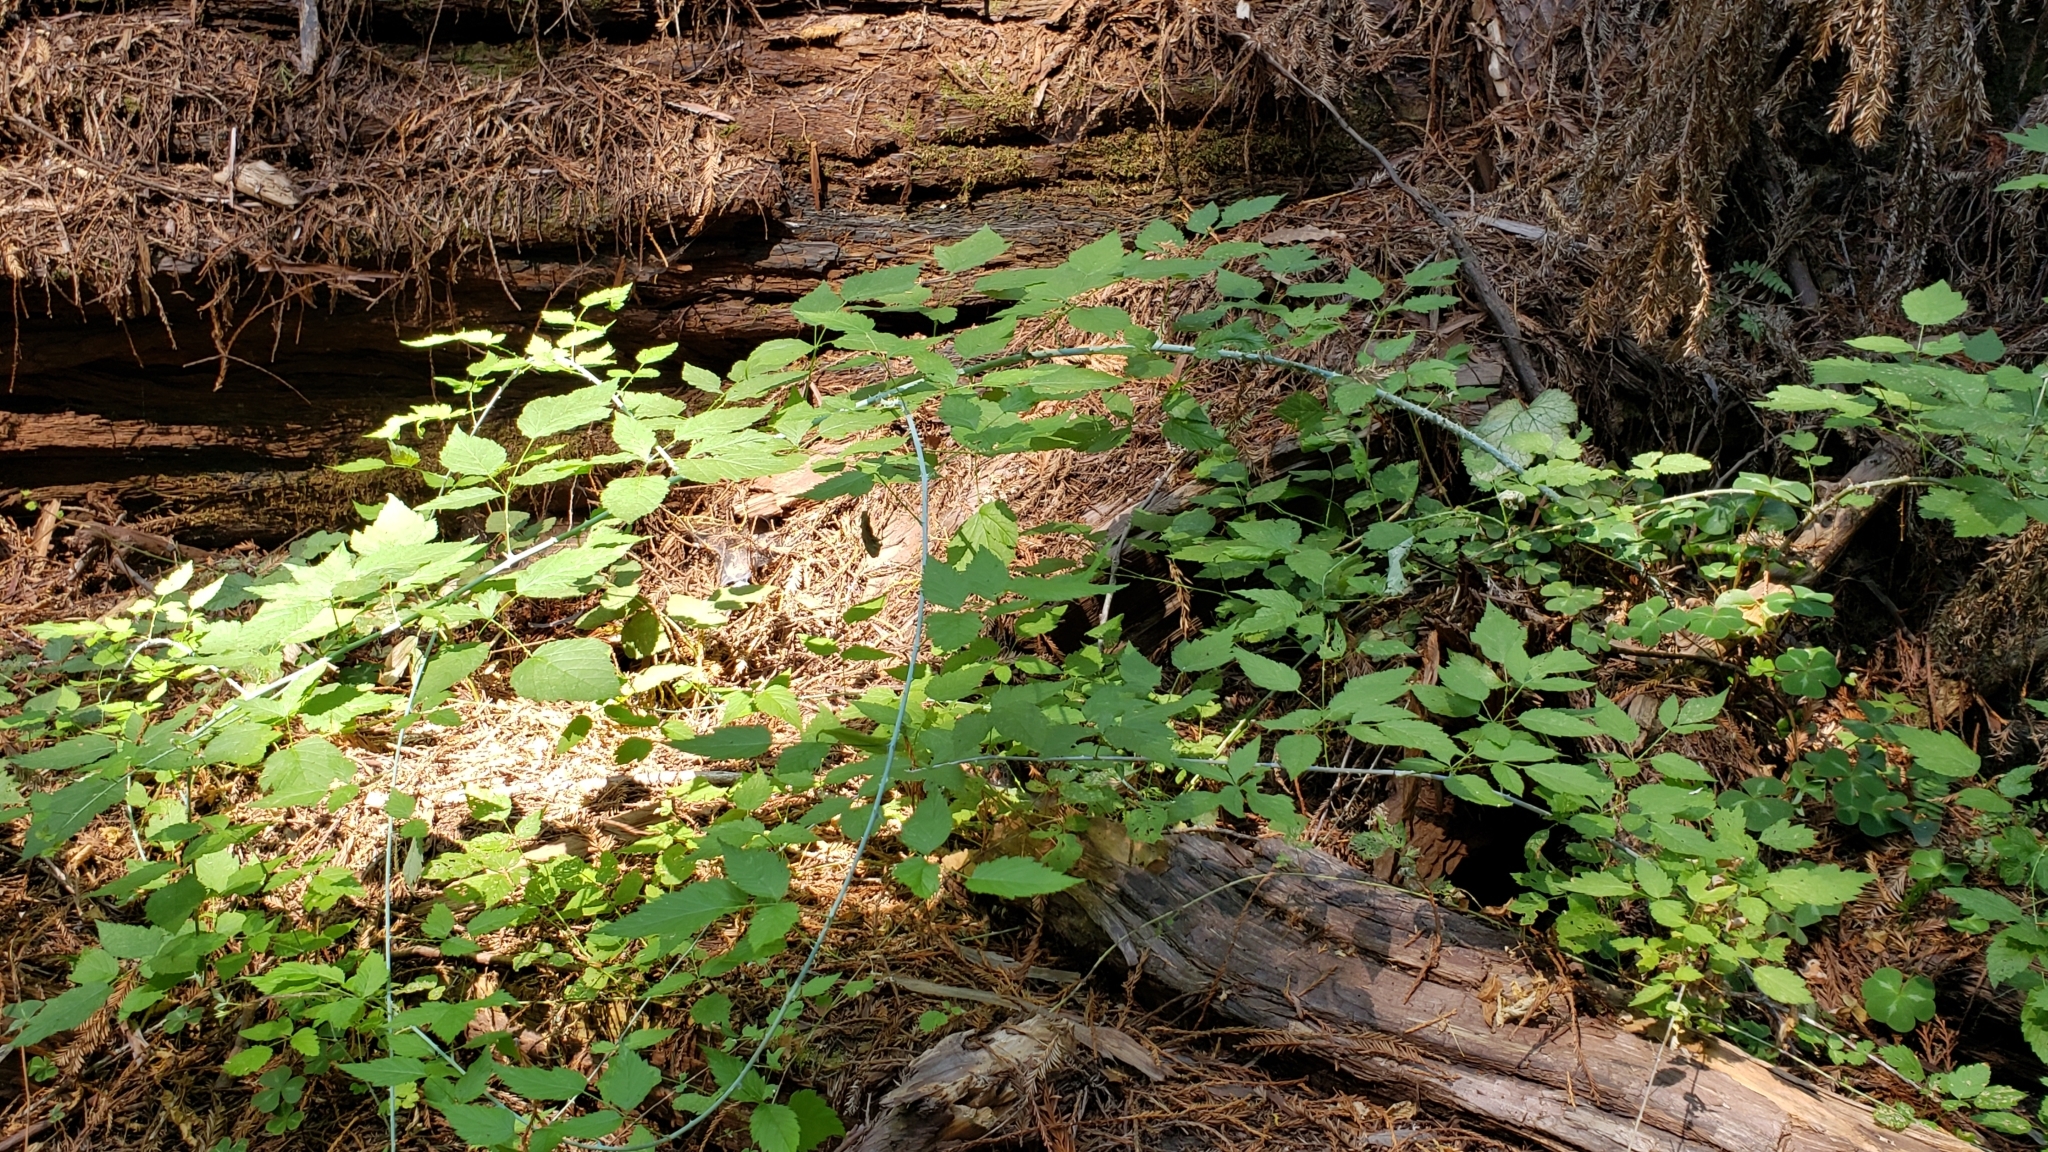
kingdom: Plantae
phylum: Tracheophyta
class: Magnoliopsida
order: Rosales
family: Rosaceae
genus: Rubus
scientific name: Rubus leucodermis
